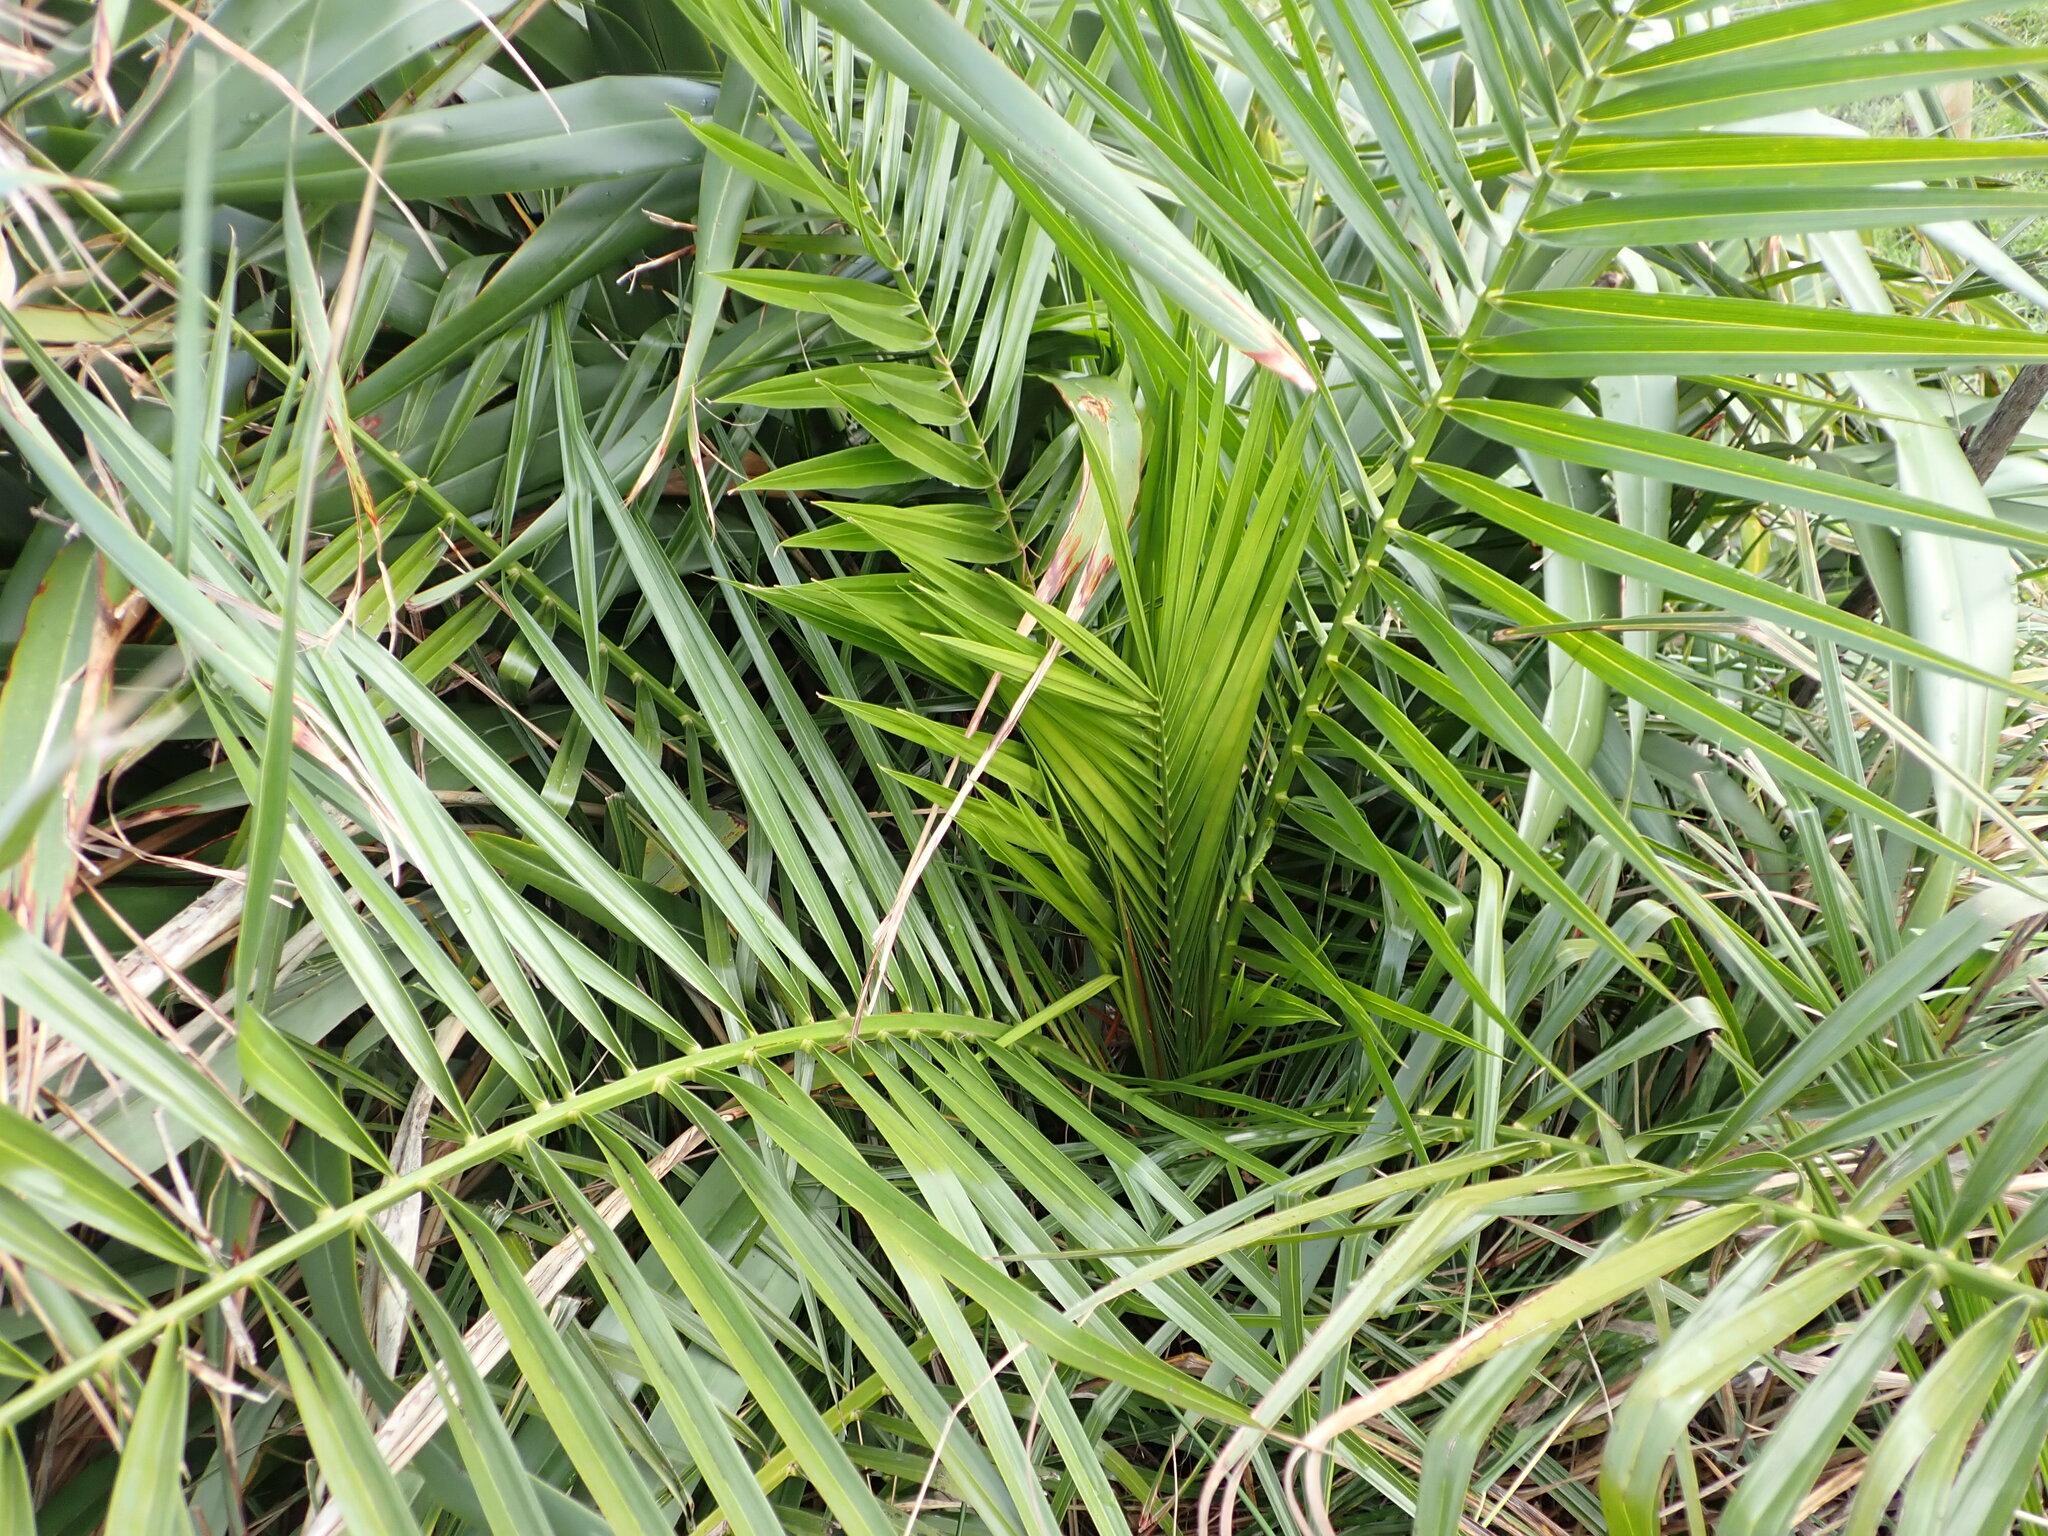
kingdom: Plantae
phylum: Tracheophyta
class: Liliopsida
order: Arecales
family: Arecaceae
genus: Phoenix
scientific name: Phoenix canariensis
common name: Canary island date palm
